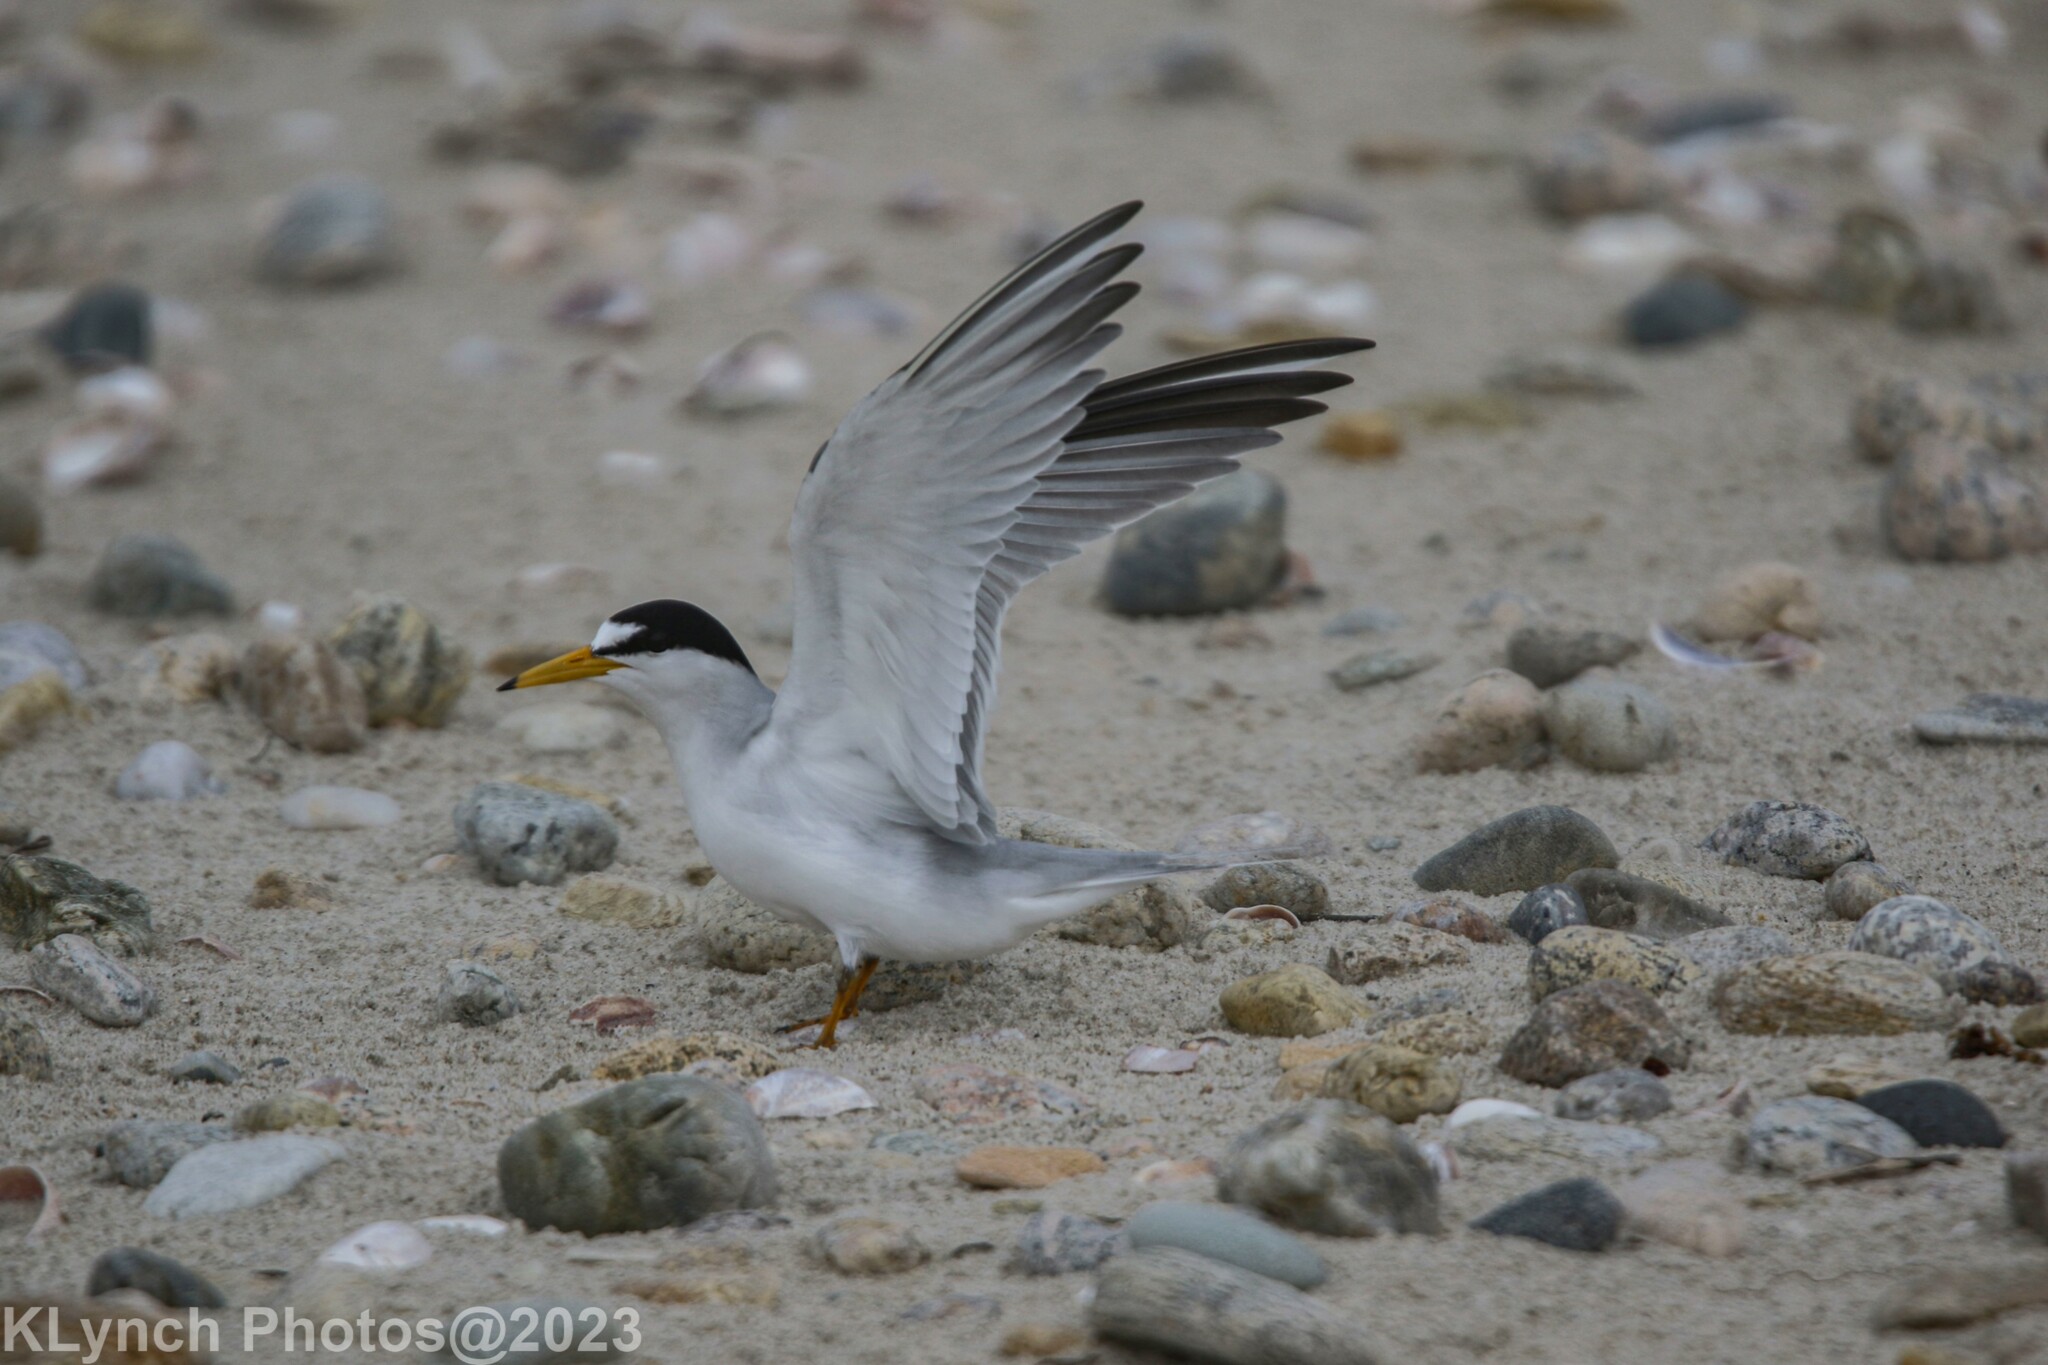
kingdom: Animalia
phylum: Chordata
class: Aves
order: Charadriiformes
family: Laridae
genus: Sternula
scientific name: Sternula antillarum
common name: Least tern
